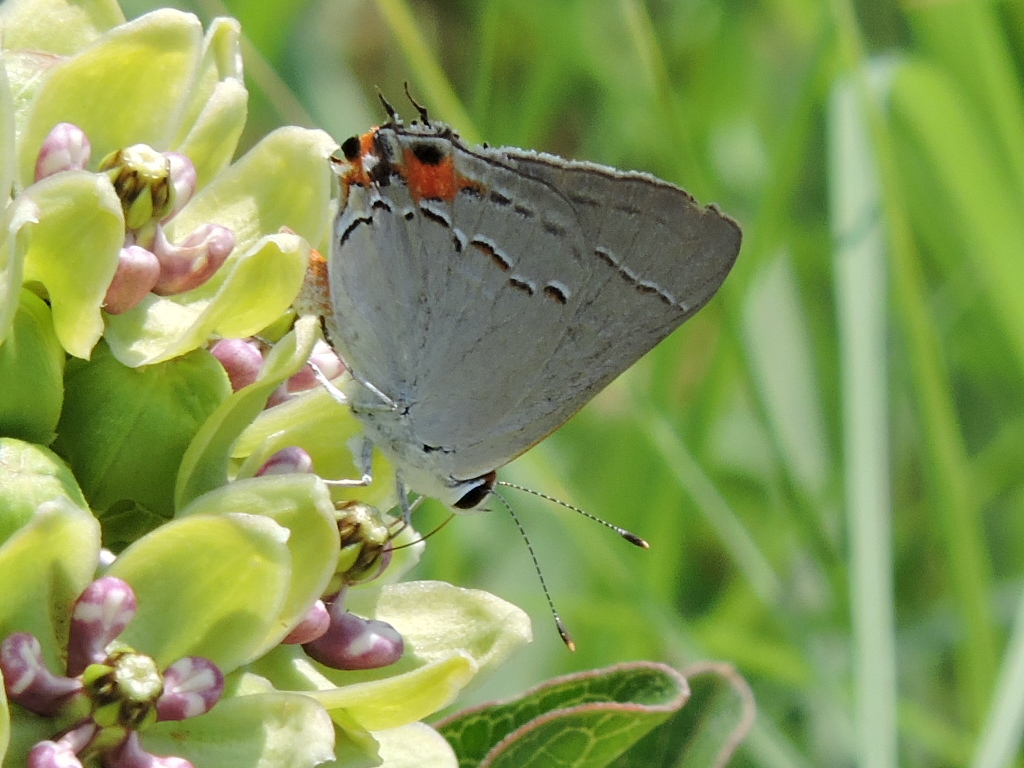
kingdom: Animalia
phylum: Arthropoda
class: Insecta
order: Lepidoptera
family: Lycaenidae
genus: Strymon
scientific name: Strymon melinus
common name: Gray hairstreak
